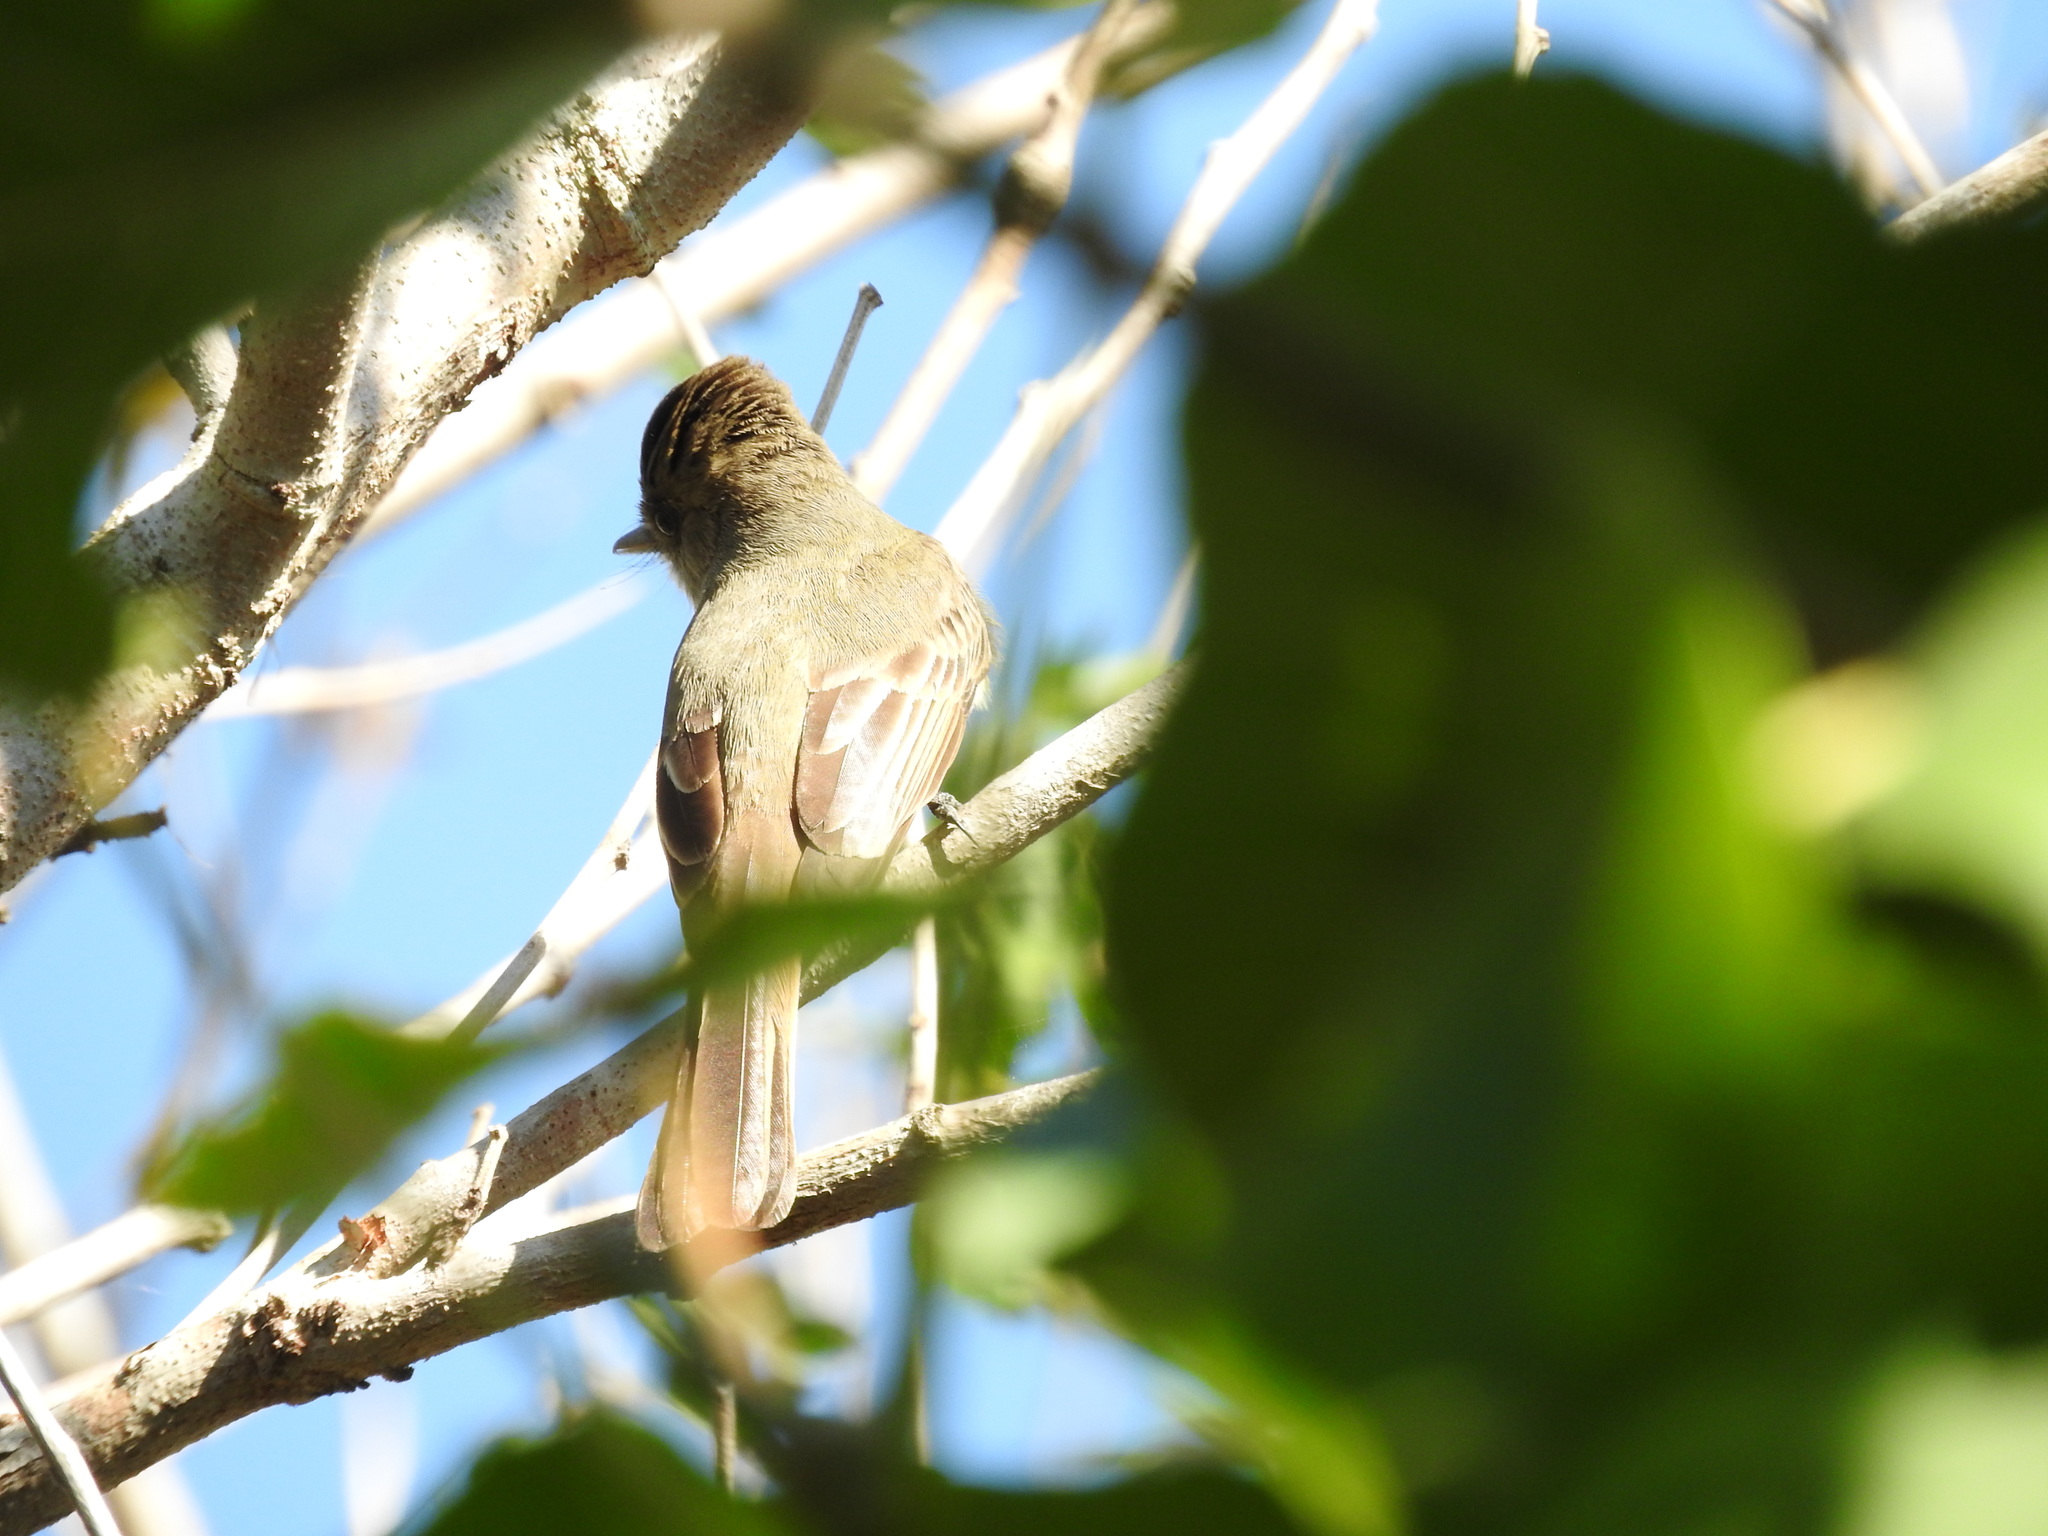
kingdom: Animalia
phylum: Chordata
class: Aves
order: Passeriformes
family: Tyrannidae
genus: Myiarchus
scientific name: Myiarchus
